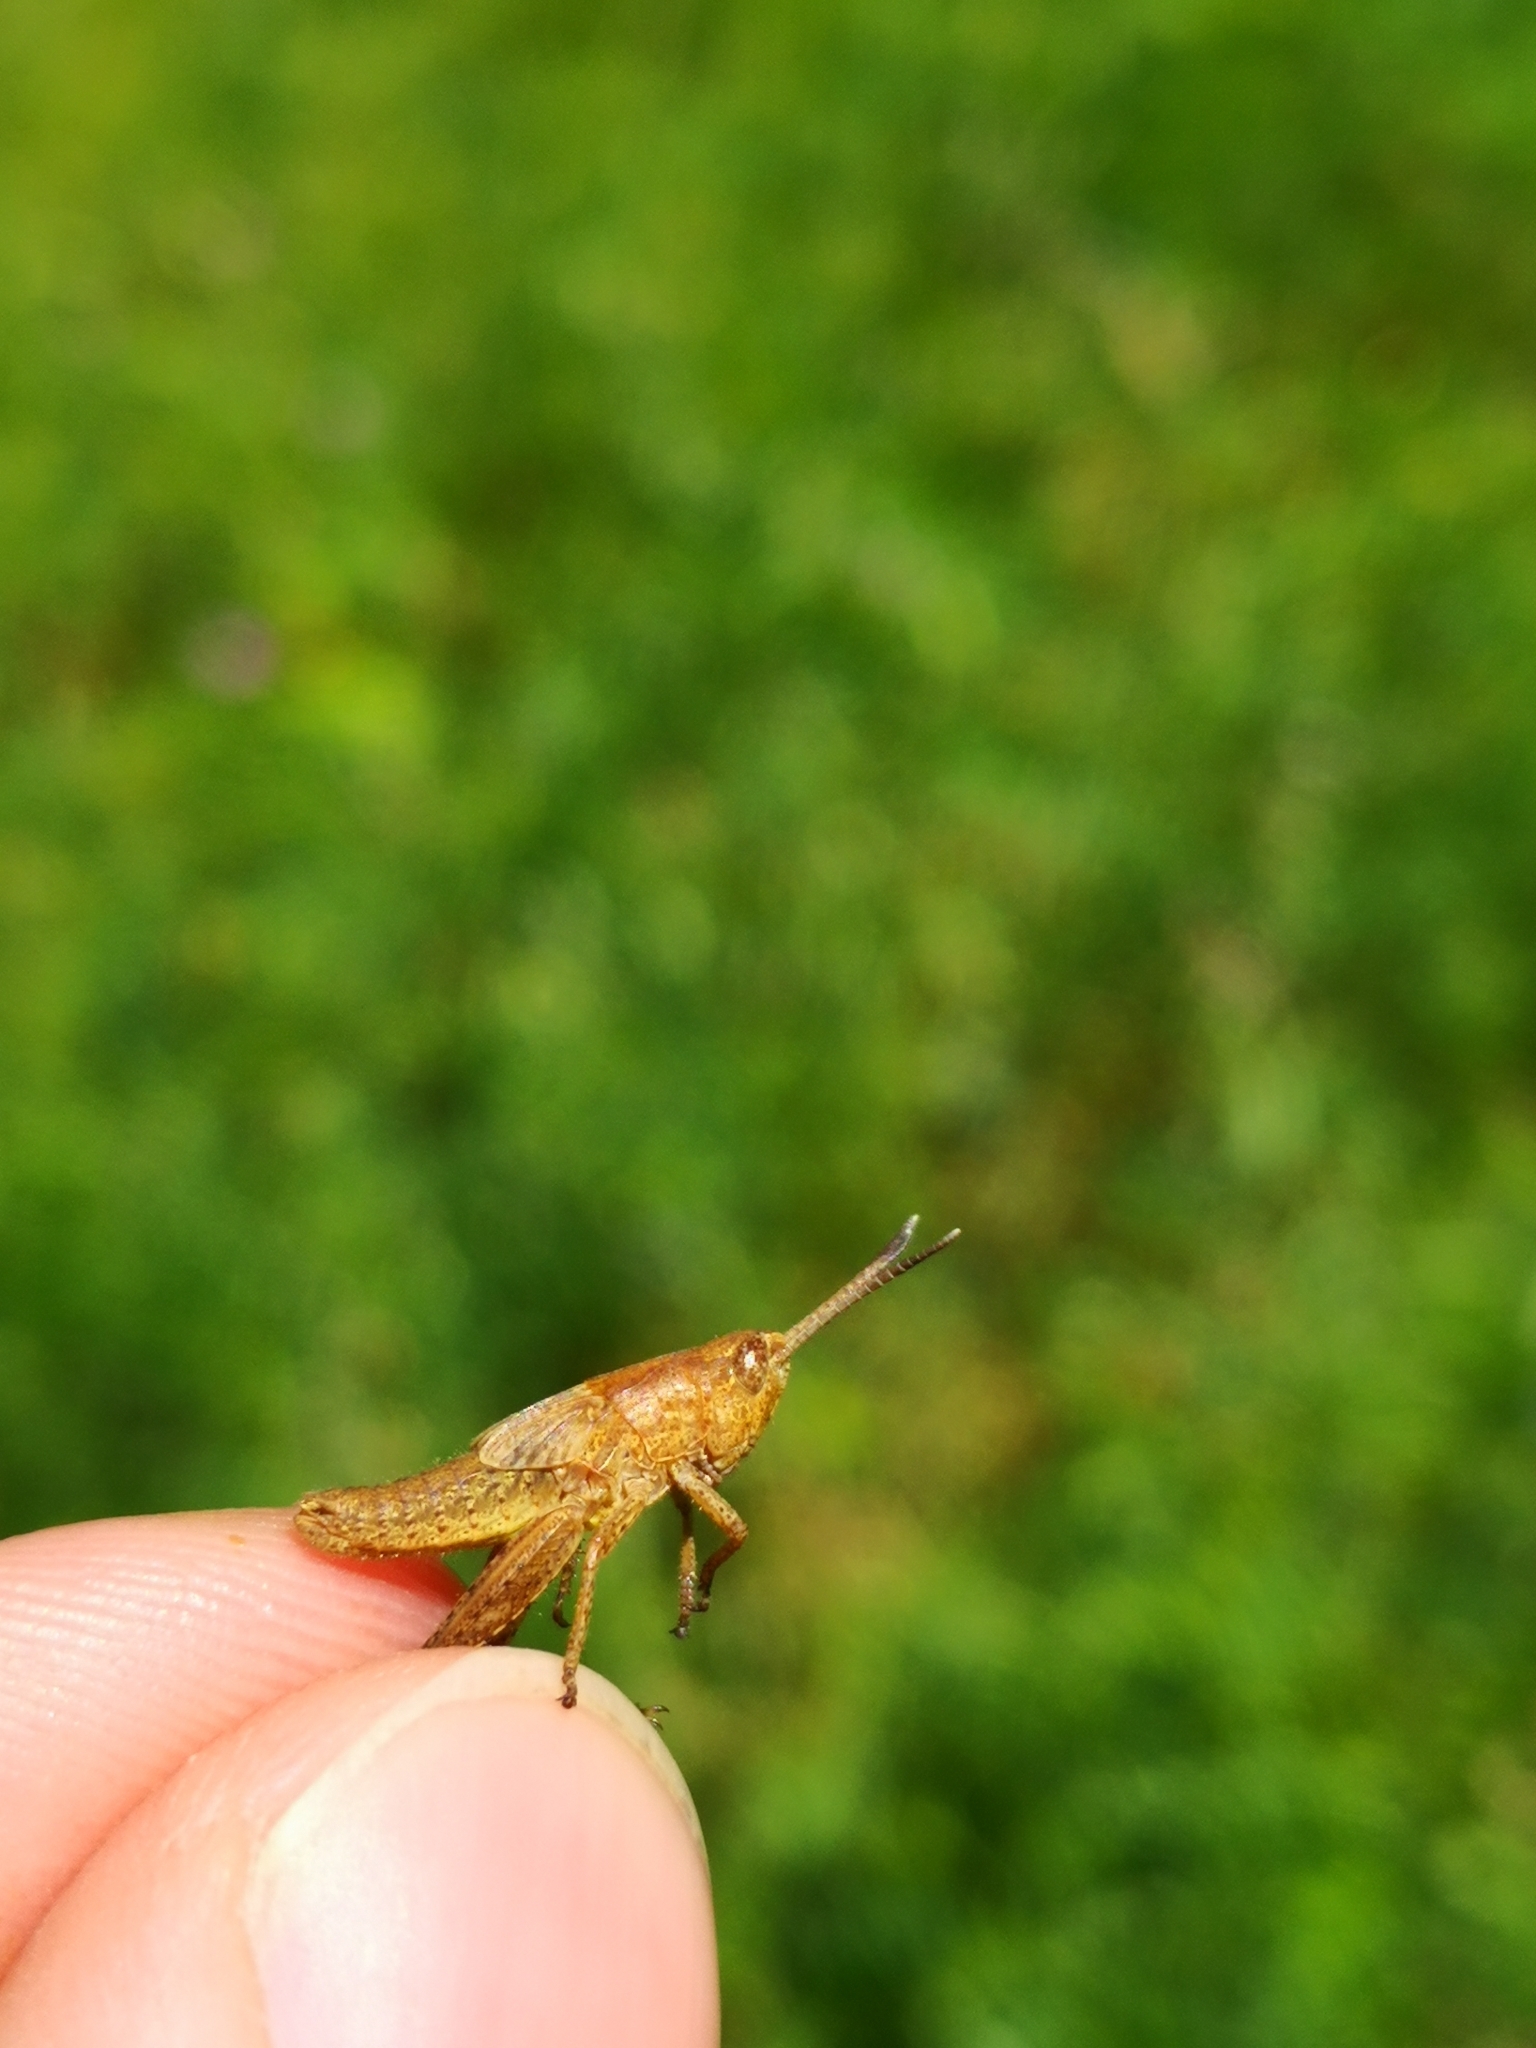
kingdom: Animalia
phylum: Arthropoda
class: Insecta
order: Orthoptera
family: Acrididae
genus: Gomphocerippus
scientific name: Gomphocerippus rufus
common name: Rufous grasshopper
